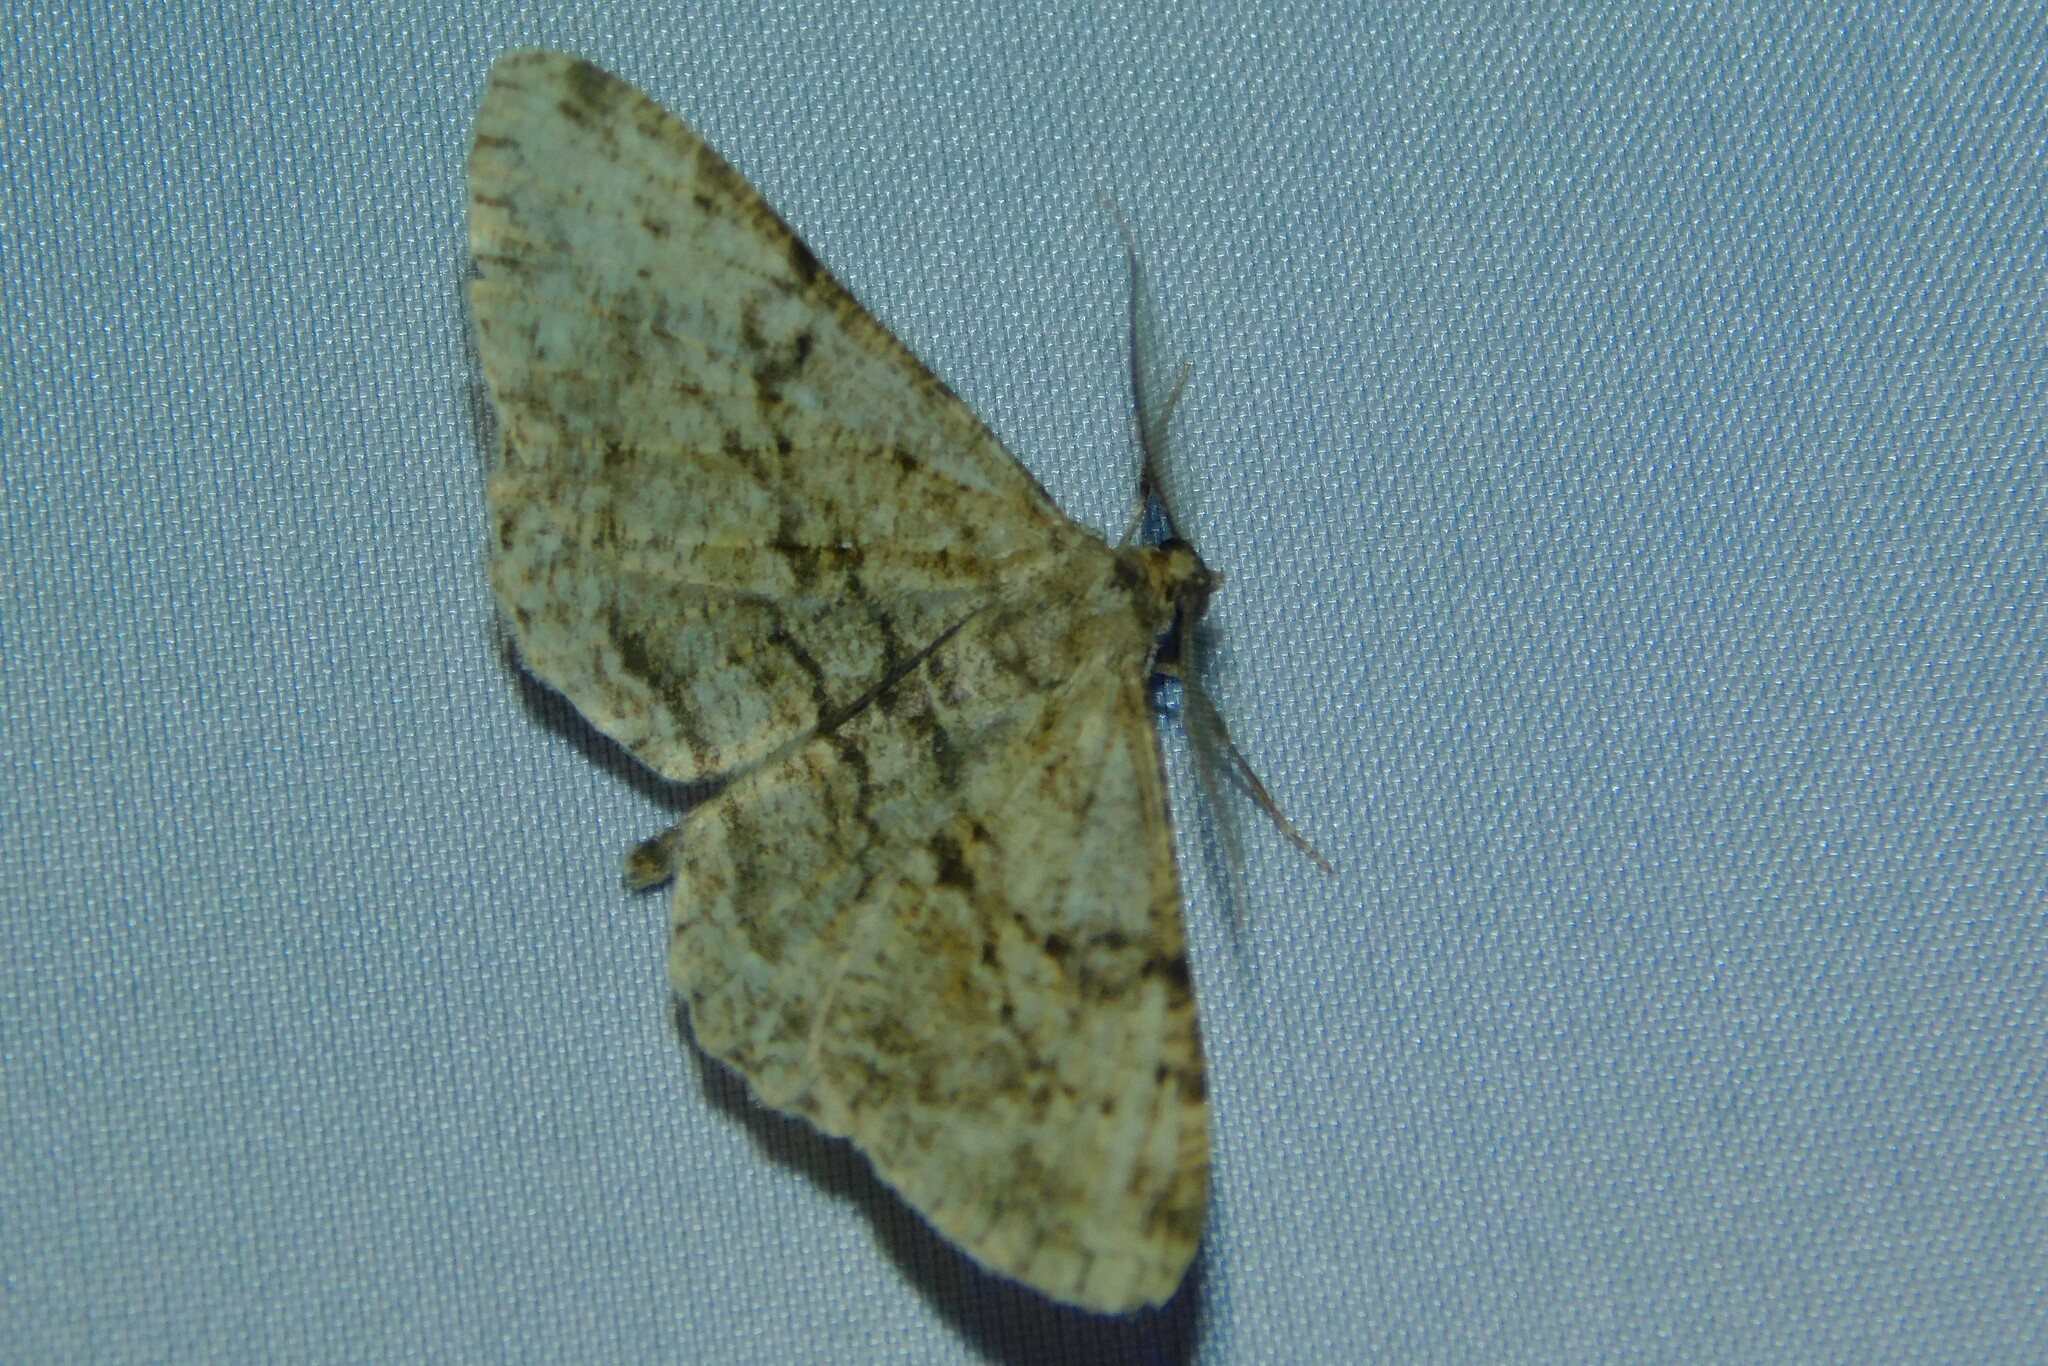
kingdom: Animalia
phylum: Arthropoda
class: Insecta
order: Lepidoptera
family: Geometridae
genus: Peribatodes
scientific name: Peribatodes rhomboidaria
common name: Willow beauty
